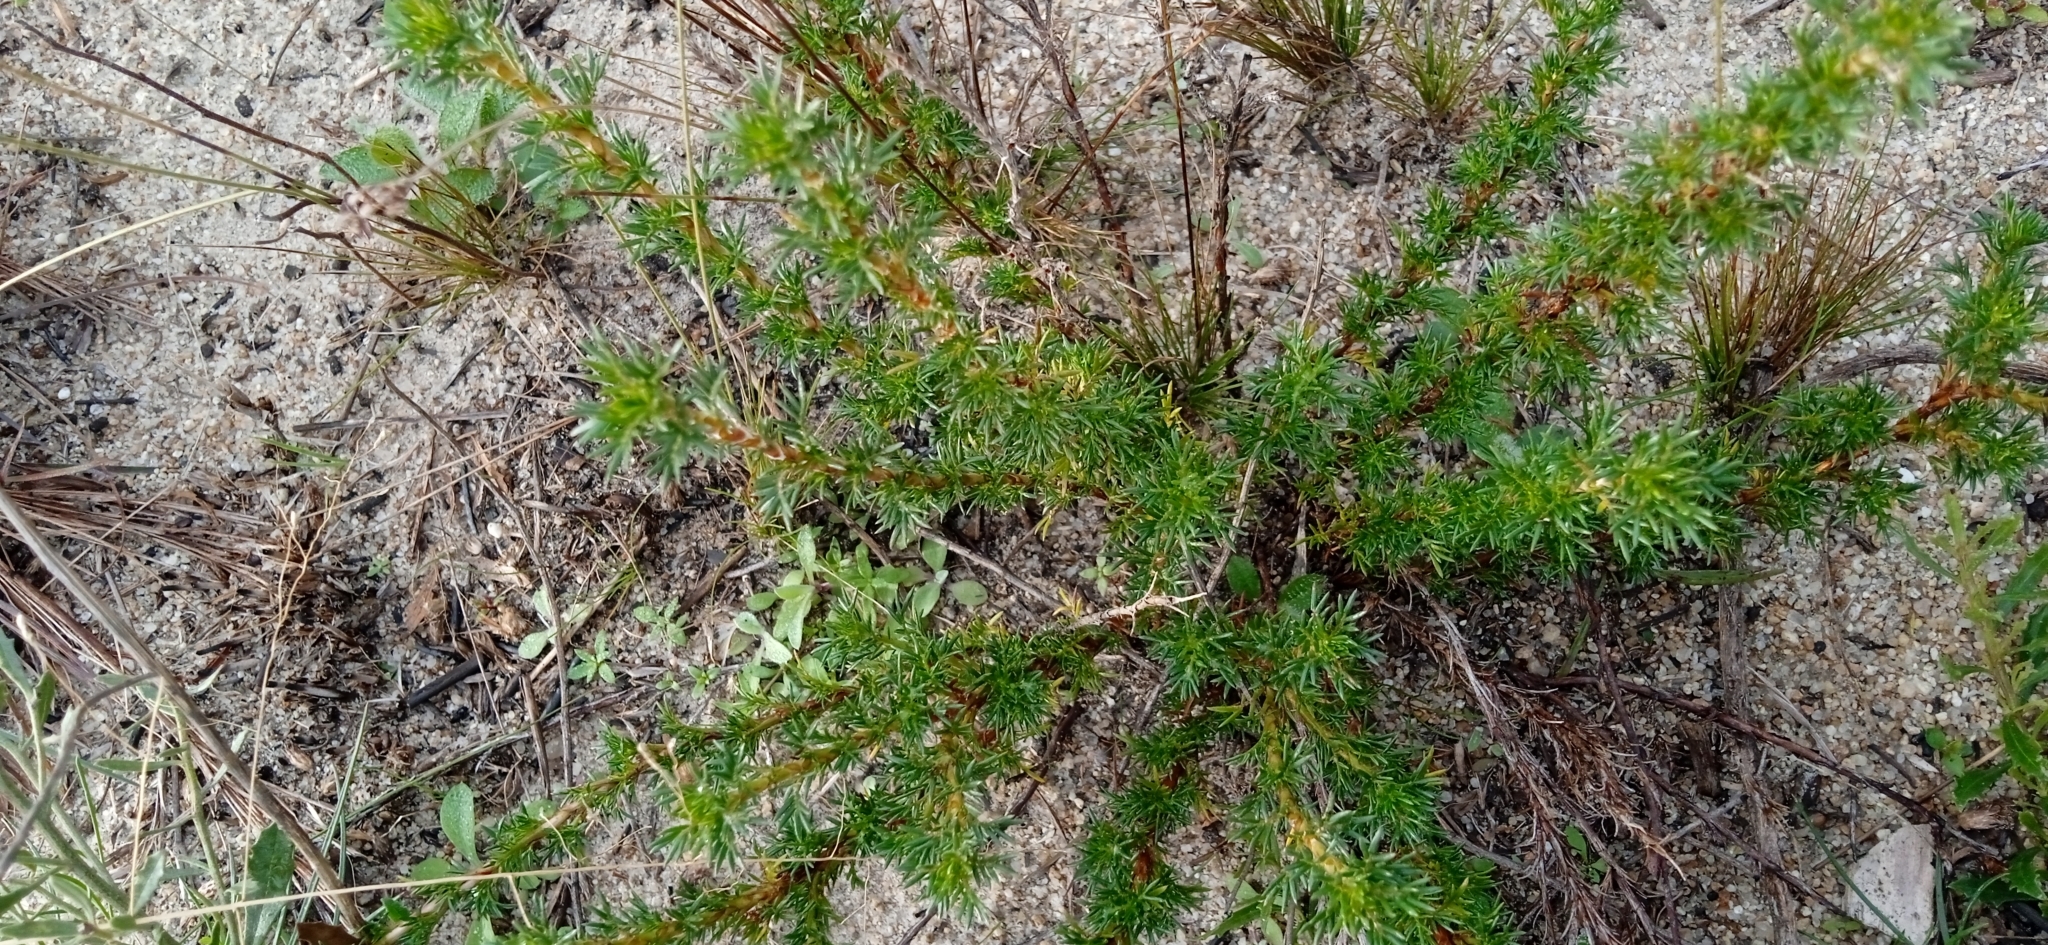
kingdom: Plantae
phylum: Tracheophyta
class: Magnoliopsida
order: Rosales
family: Rosaceae
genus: Margyricarpus
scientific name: Margyricarpus pinnatus
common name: Pearlfruit
